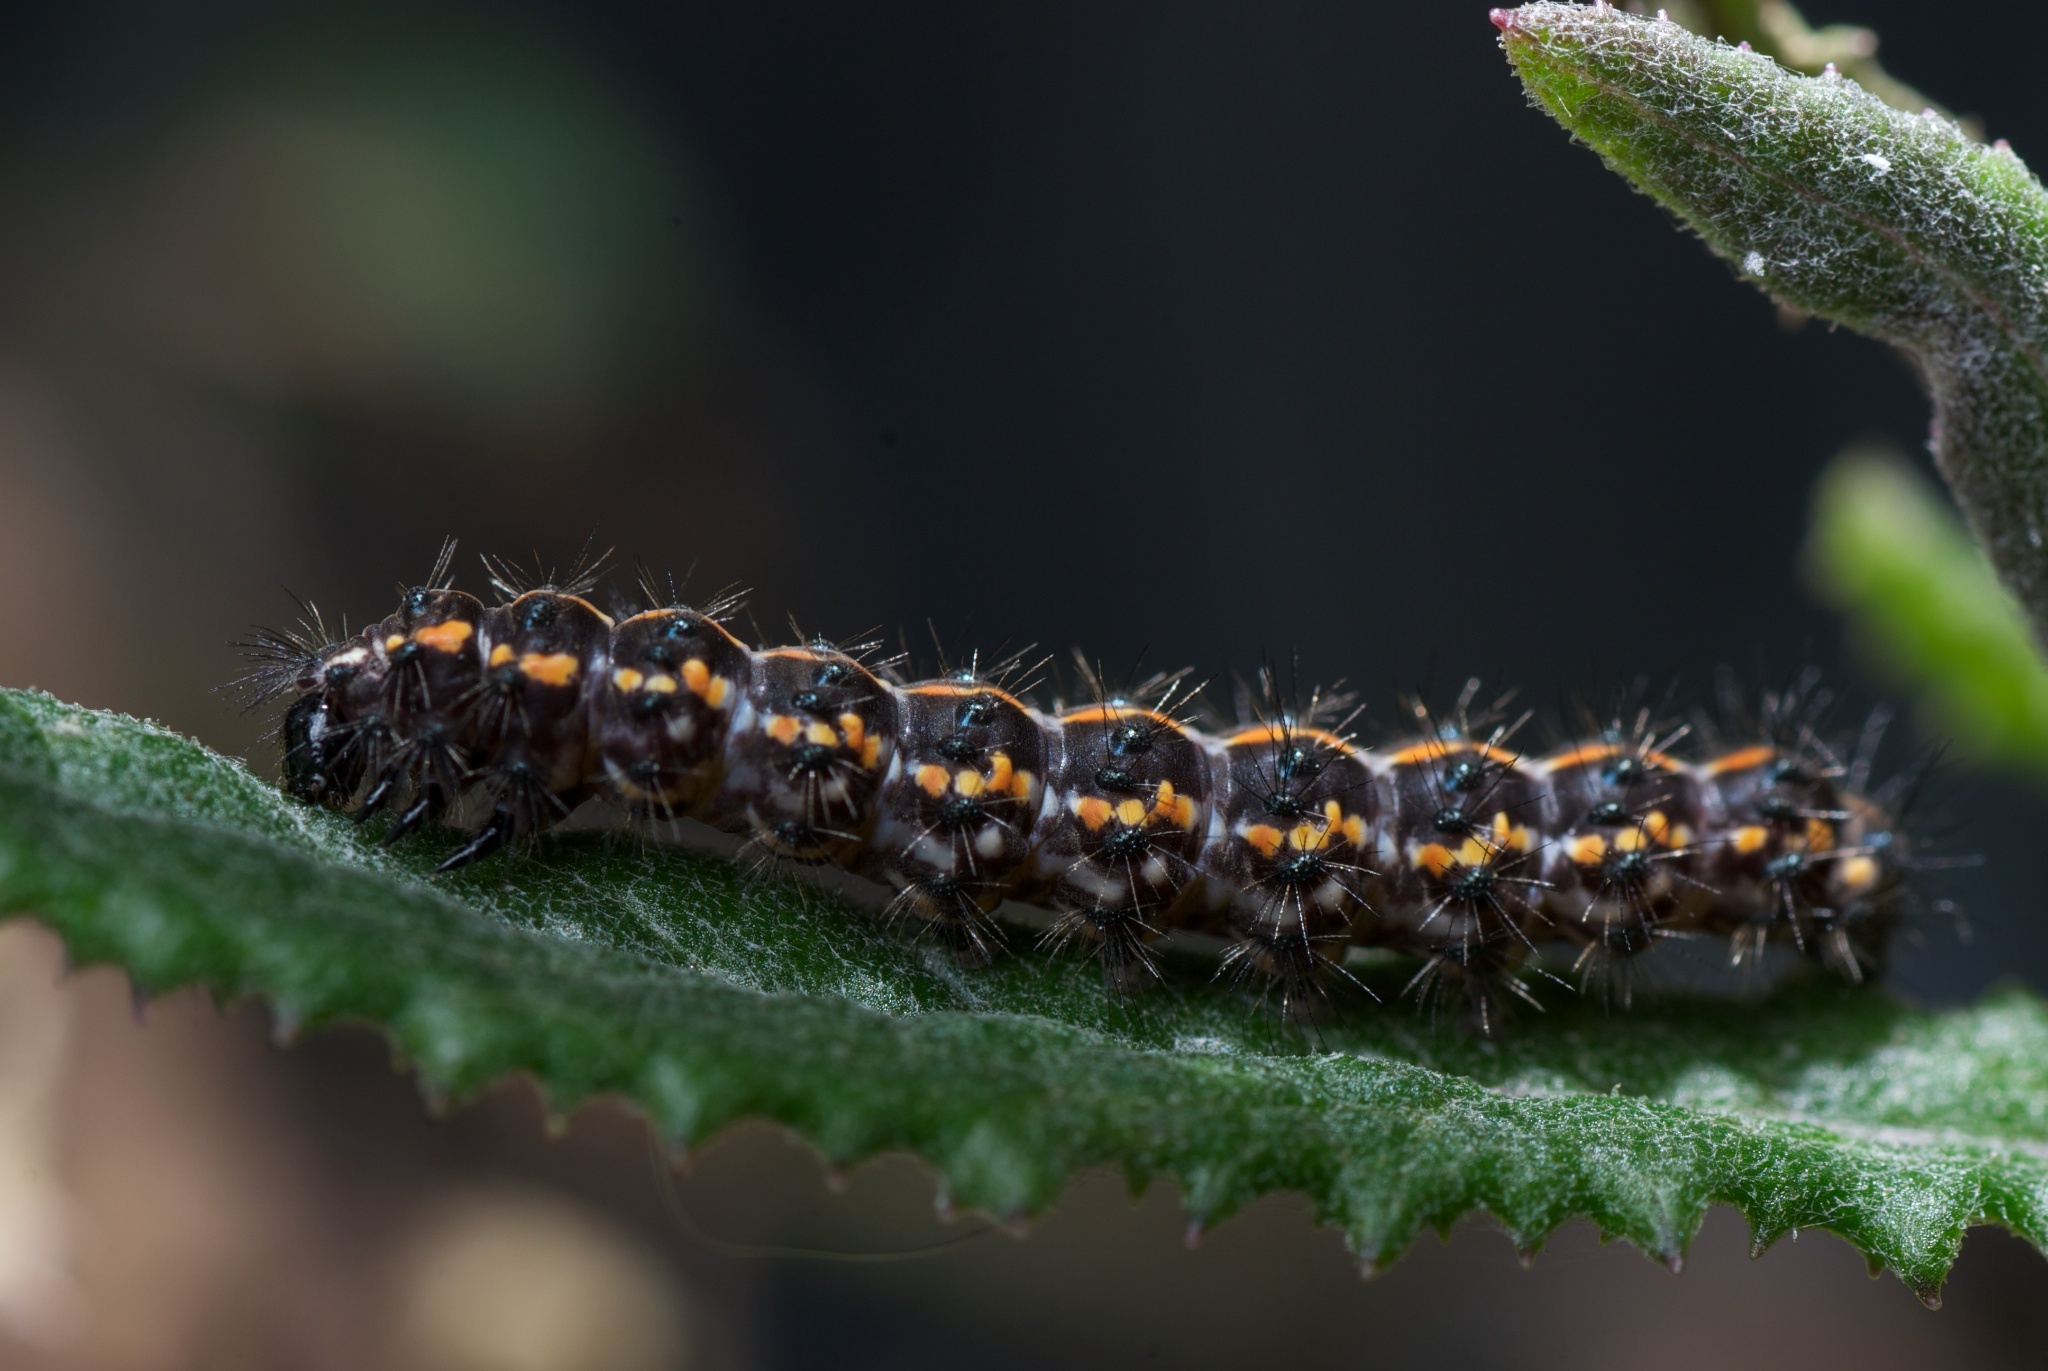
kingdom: Animalia
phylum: Arthropoda
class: Insecta
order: Lepidoptera
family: Erebidae
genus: Nyctemera
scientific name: Nyctemera annulatum
